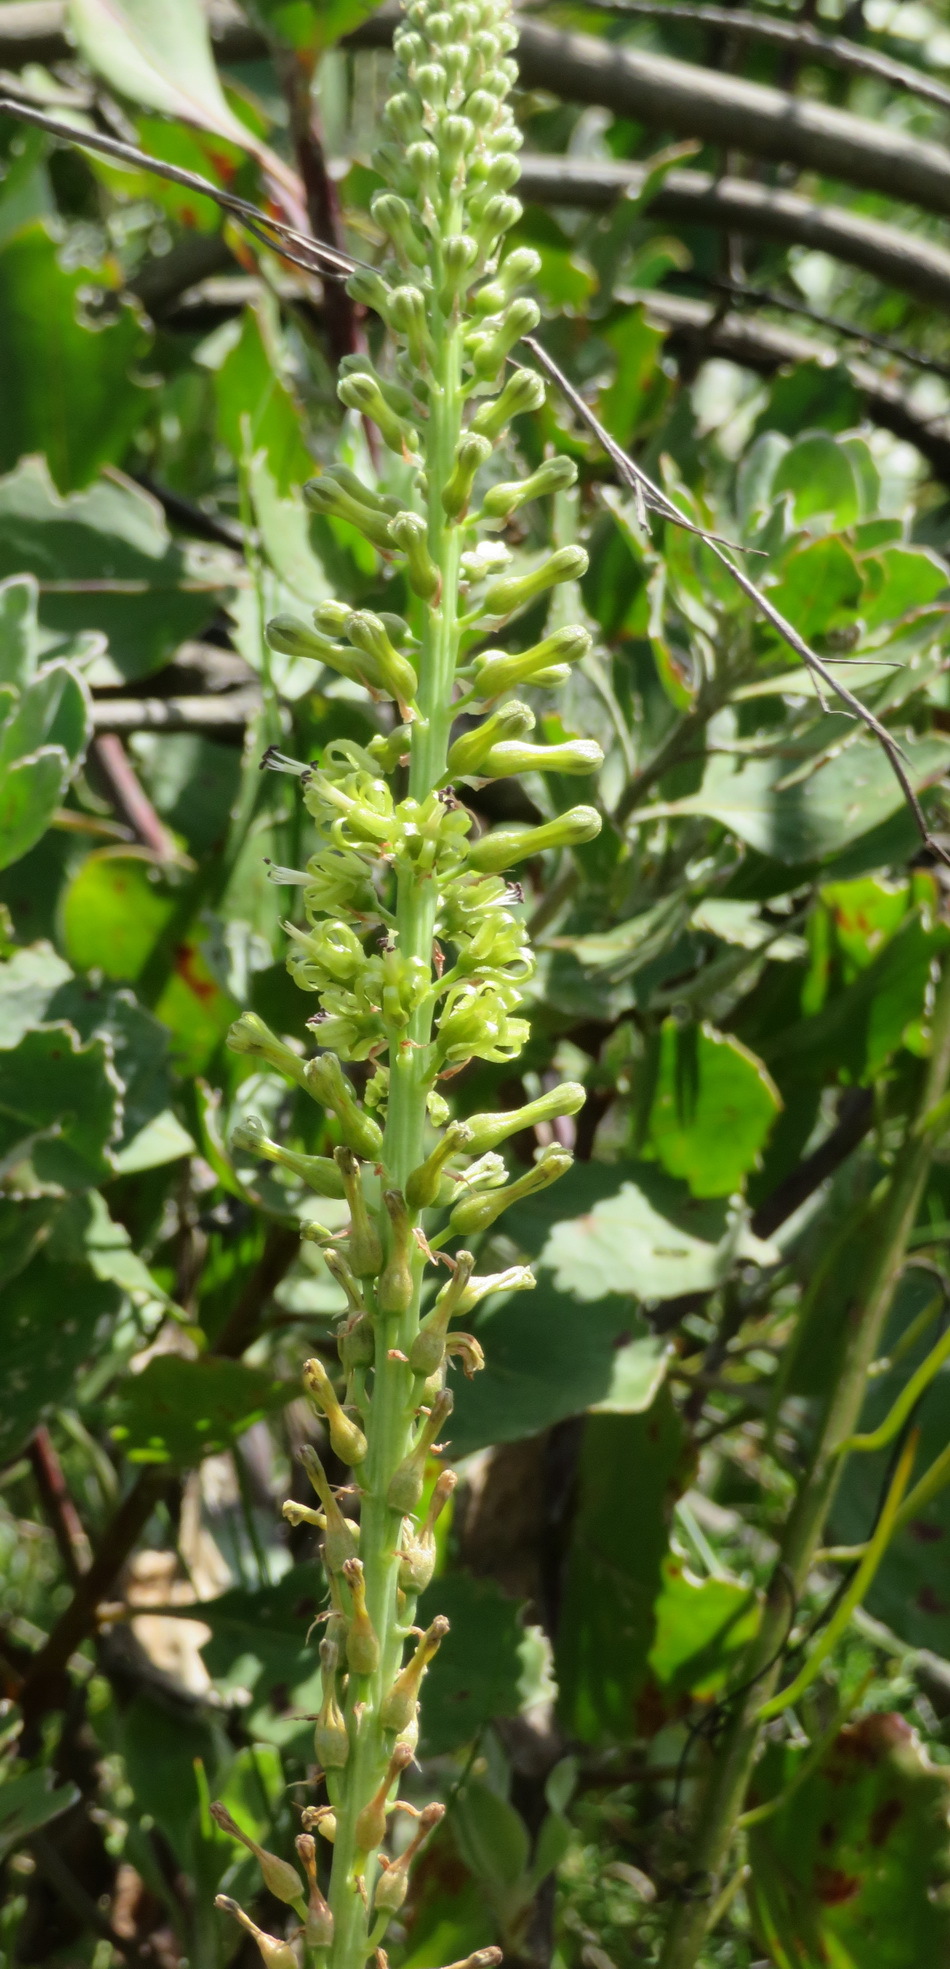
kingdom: Plantae
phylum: Tracheophyta
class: Liliopsida
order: Asparagales
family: Asparagaceae
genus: Drimia
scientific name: Drimia elata
